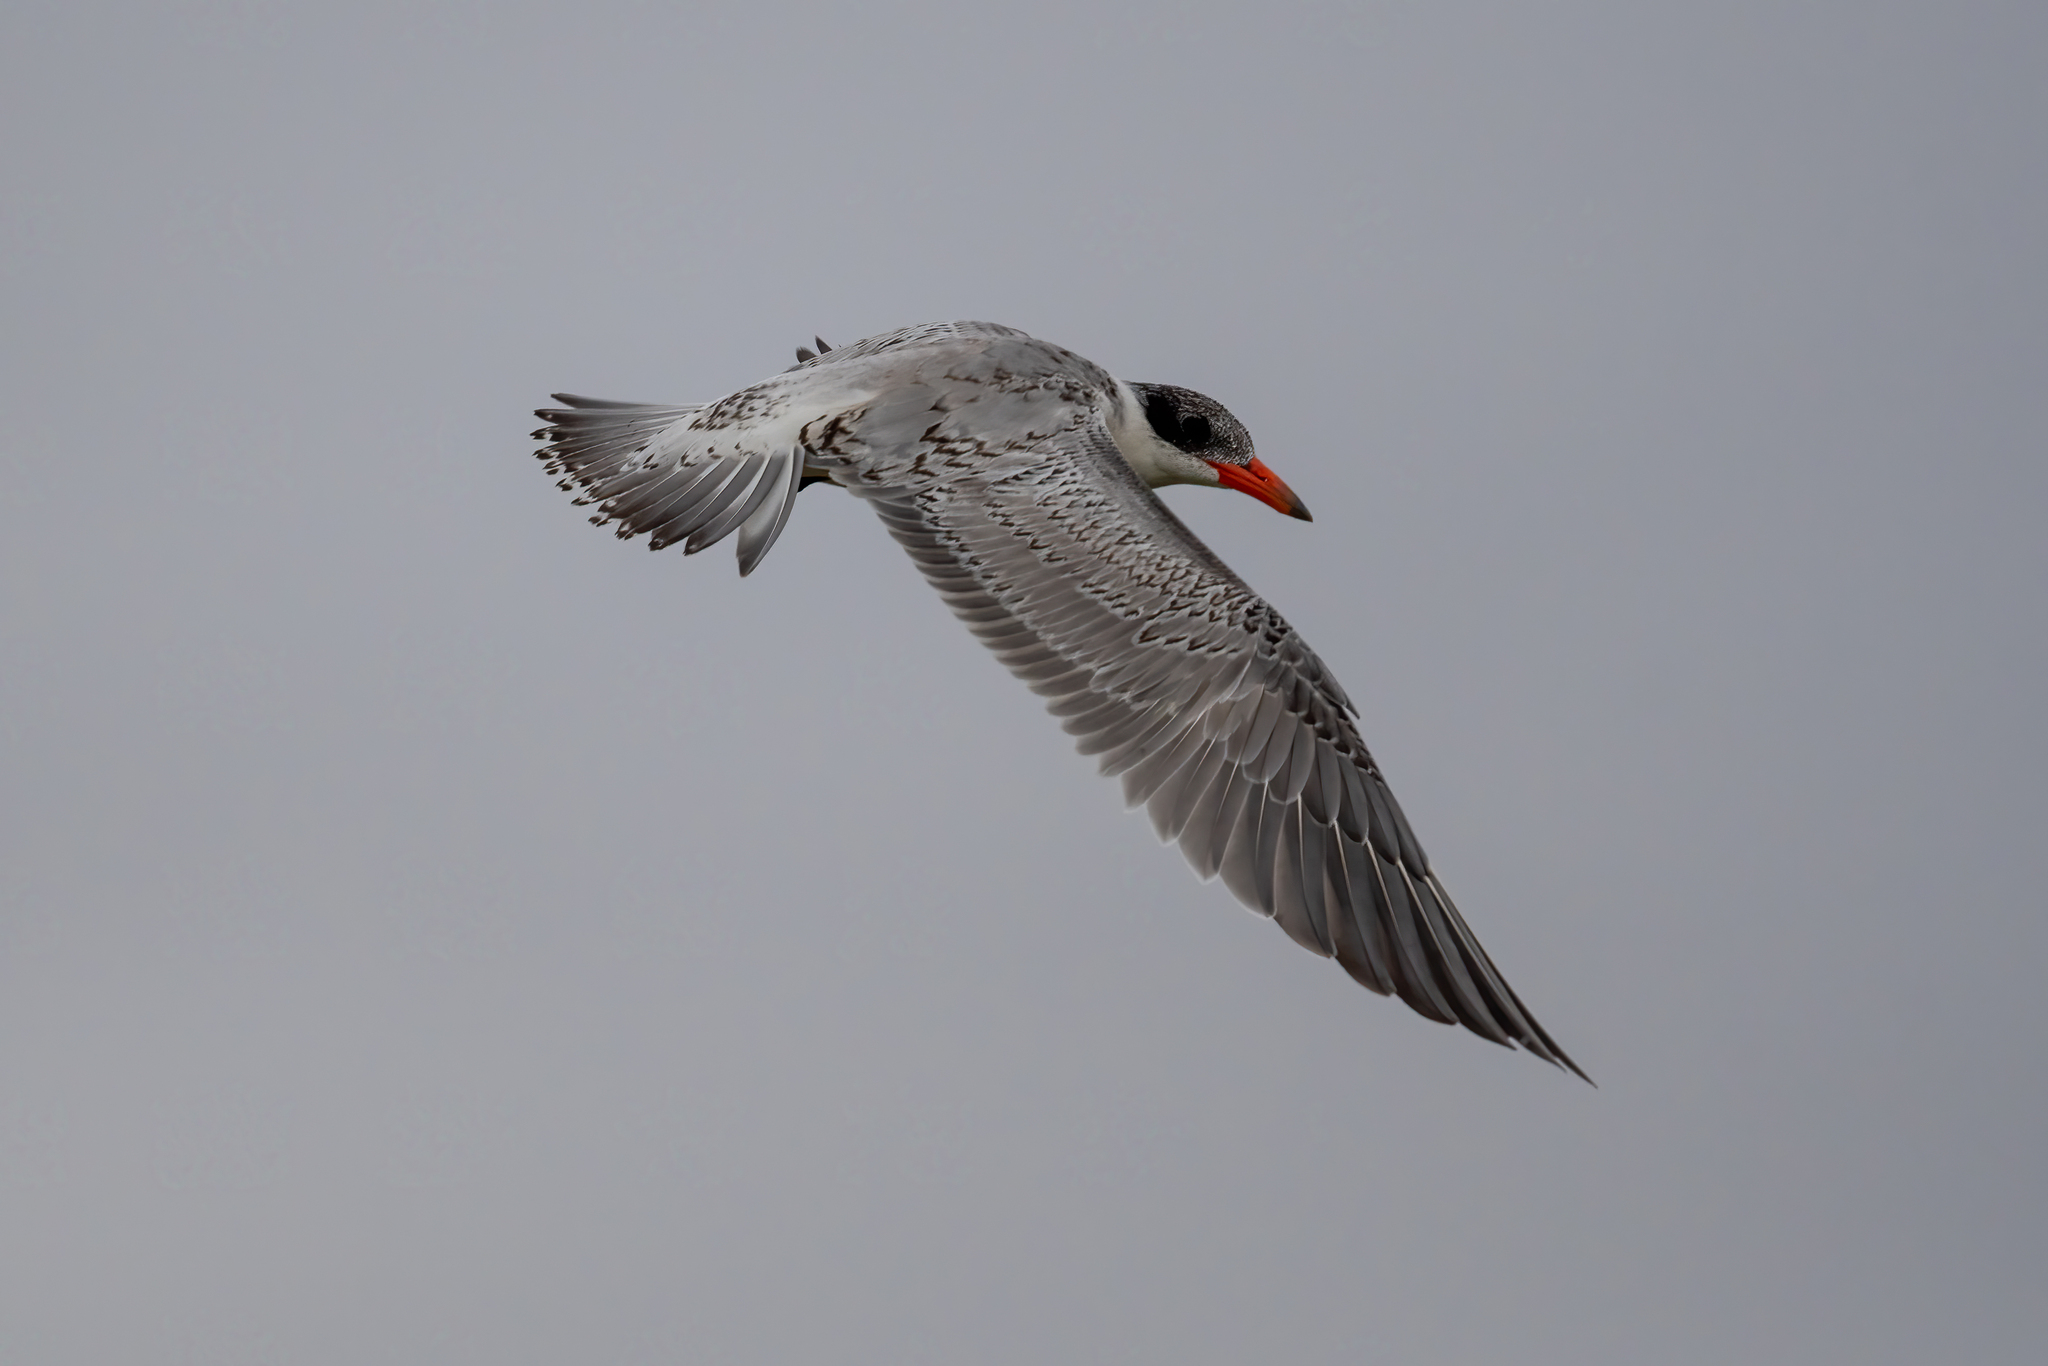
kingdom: Animalia
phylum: Chordata
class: Aves
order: Charadriiformes
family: Laridae
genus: Hydroprogne
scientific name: Hydroprogne caspia
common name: Caspian tern
